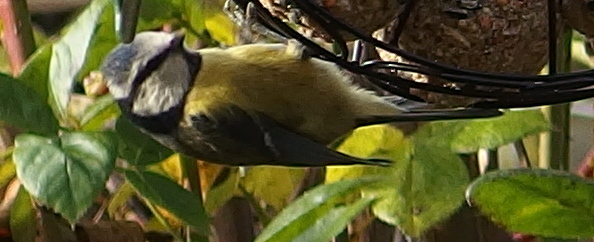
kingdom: Animalia
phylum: Chordata
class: Aves
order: Passeriformes
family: Paridae
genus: Cyanistes
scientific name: Cyanistes caeruleus
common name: Eurasian blue tit
